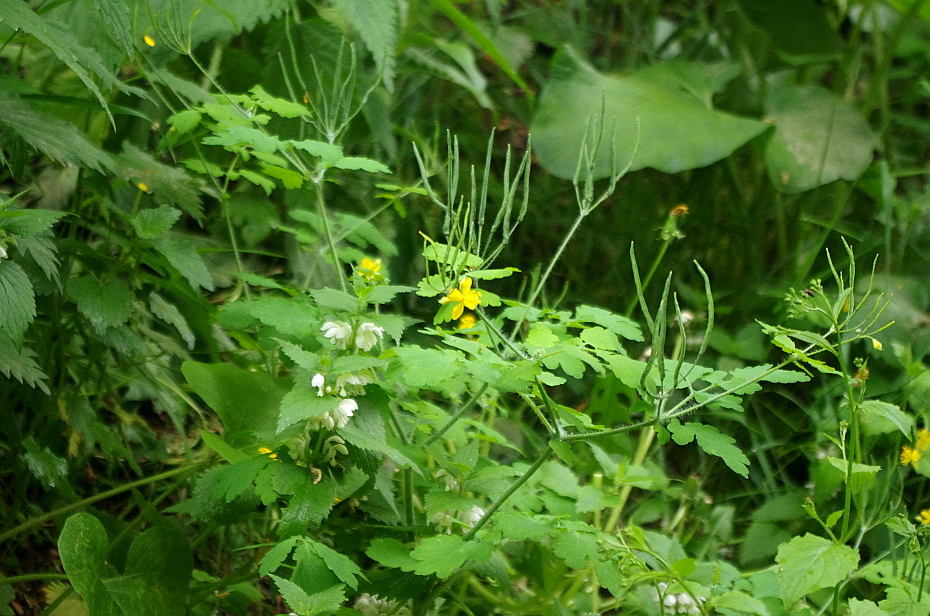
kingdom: Plantae
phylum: Tracheophyta
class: Magnoliopsida
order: Ranunculales
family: Papaveraceae
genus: Chelidonium
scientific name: Chelidonium majus
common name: Greater celandine
